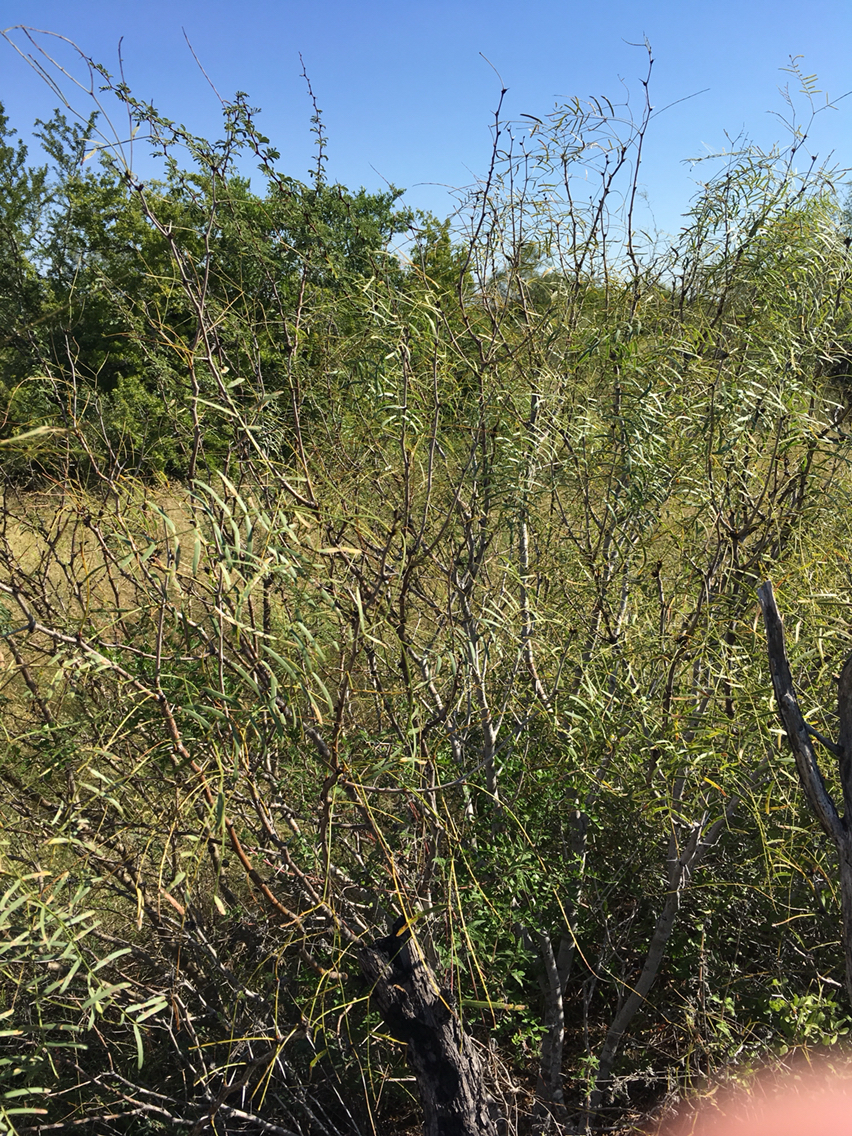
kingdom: Plantae
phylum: Tracheophyta
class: Magnoliopsida
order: Fabales
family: Fabaceae
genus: Prosopis
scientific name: Prosopis glandulosa
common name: Honey mesquite
